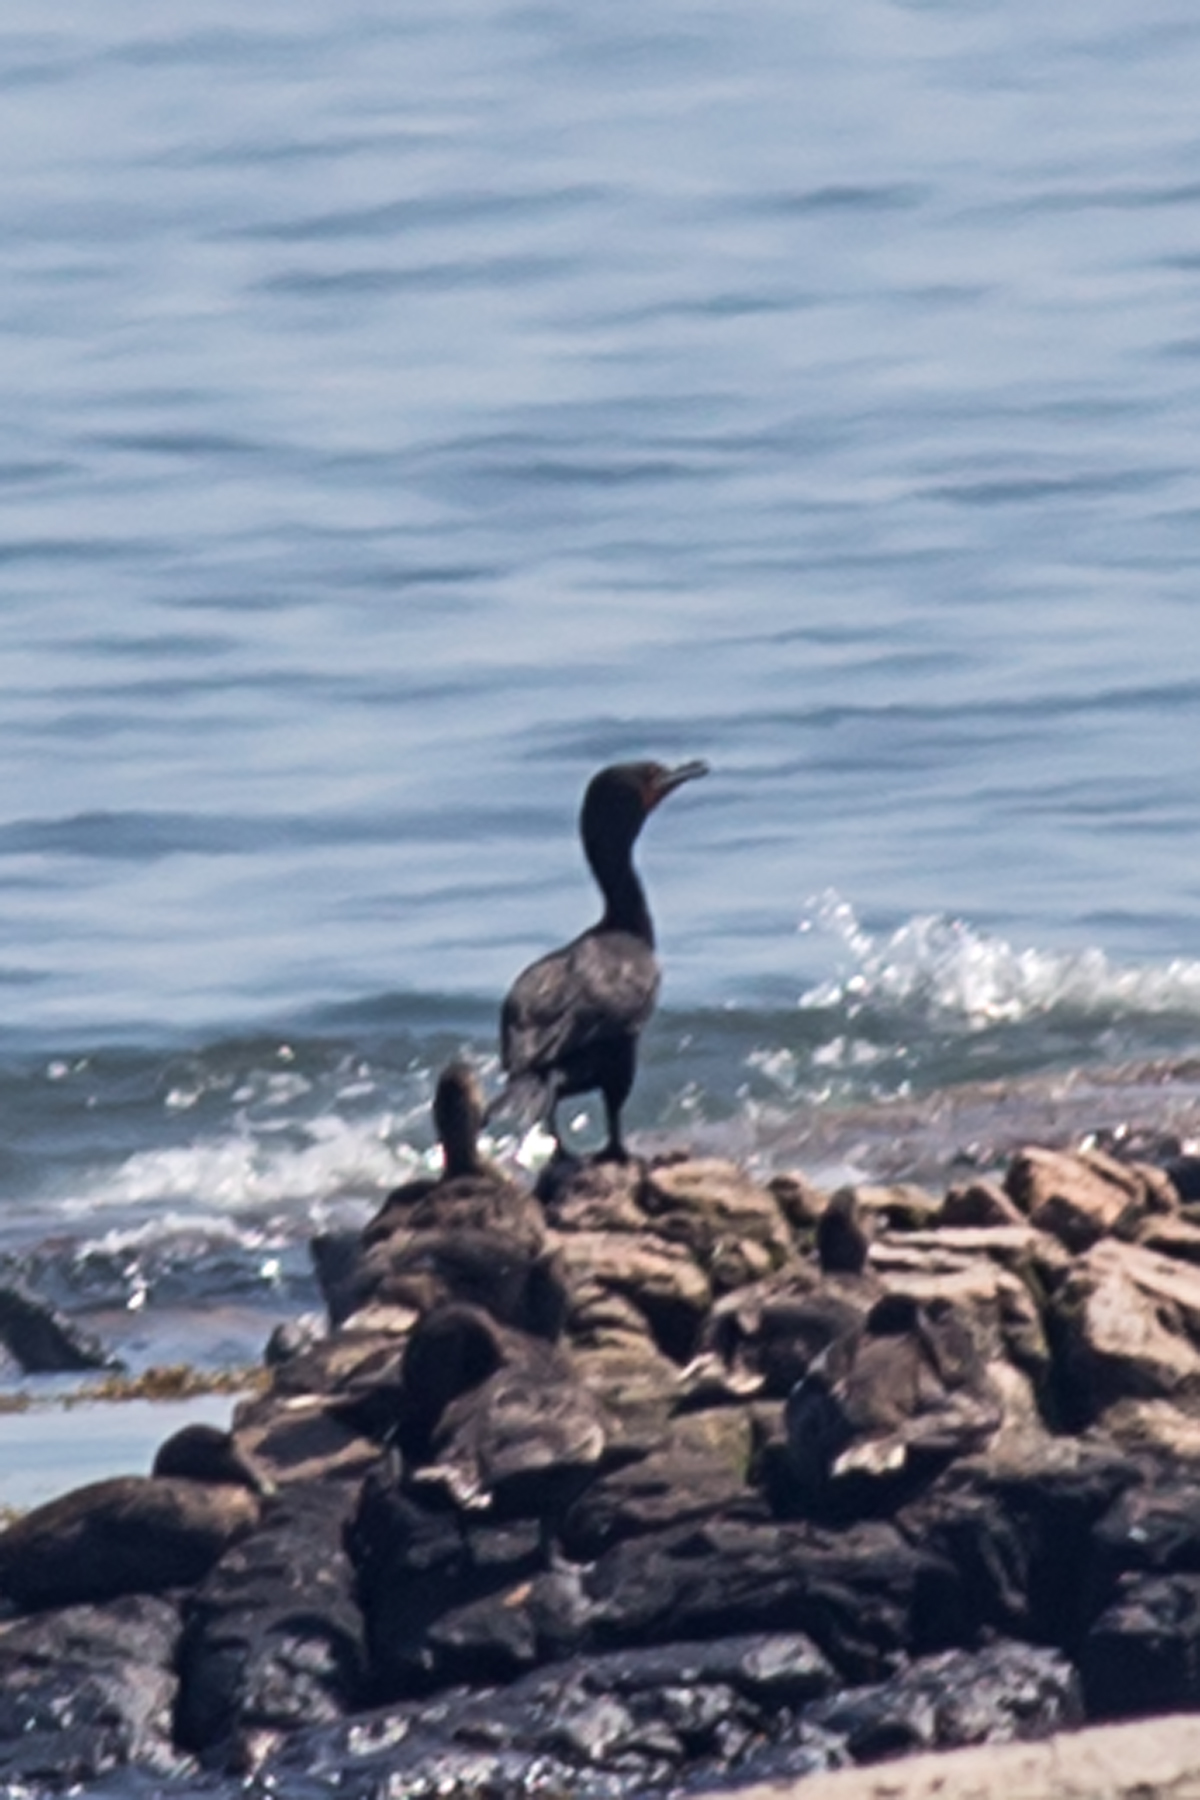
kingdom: Animalia
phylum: Chordata
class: Aves
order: Suliformes
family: Phalacrocoracidae
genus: Phalacrocorax
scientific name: Phalacrocorax auritus
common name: Double-crested cormorant
